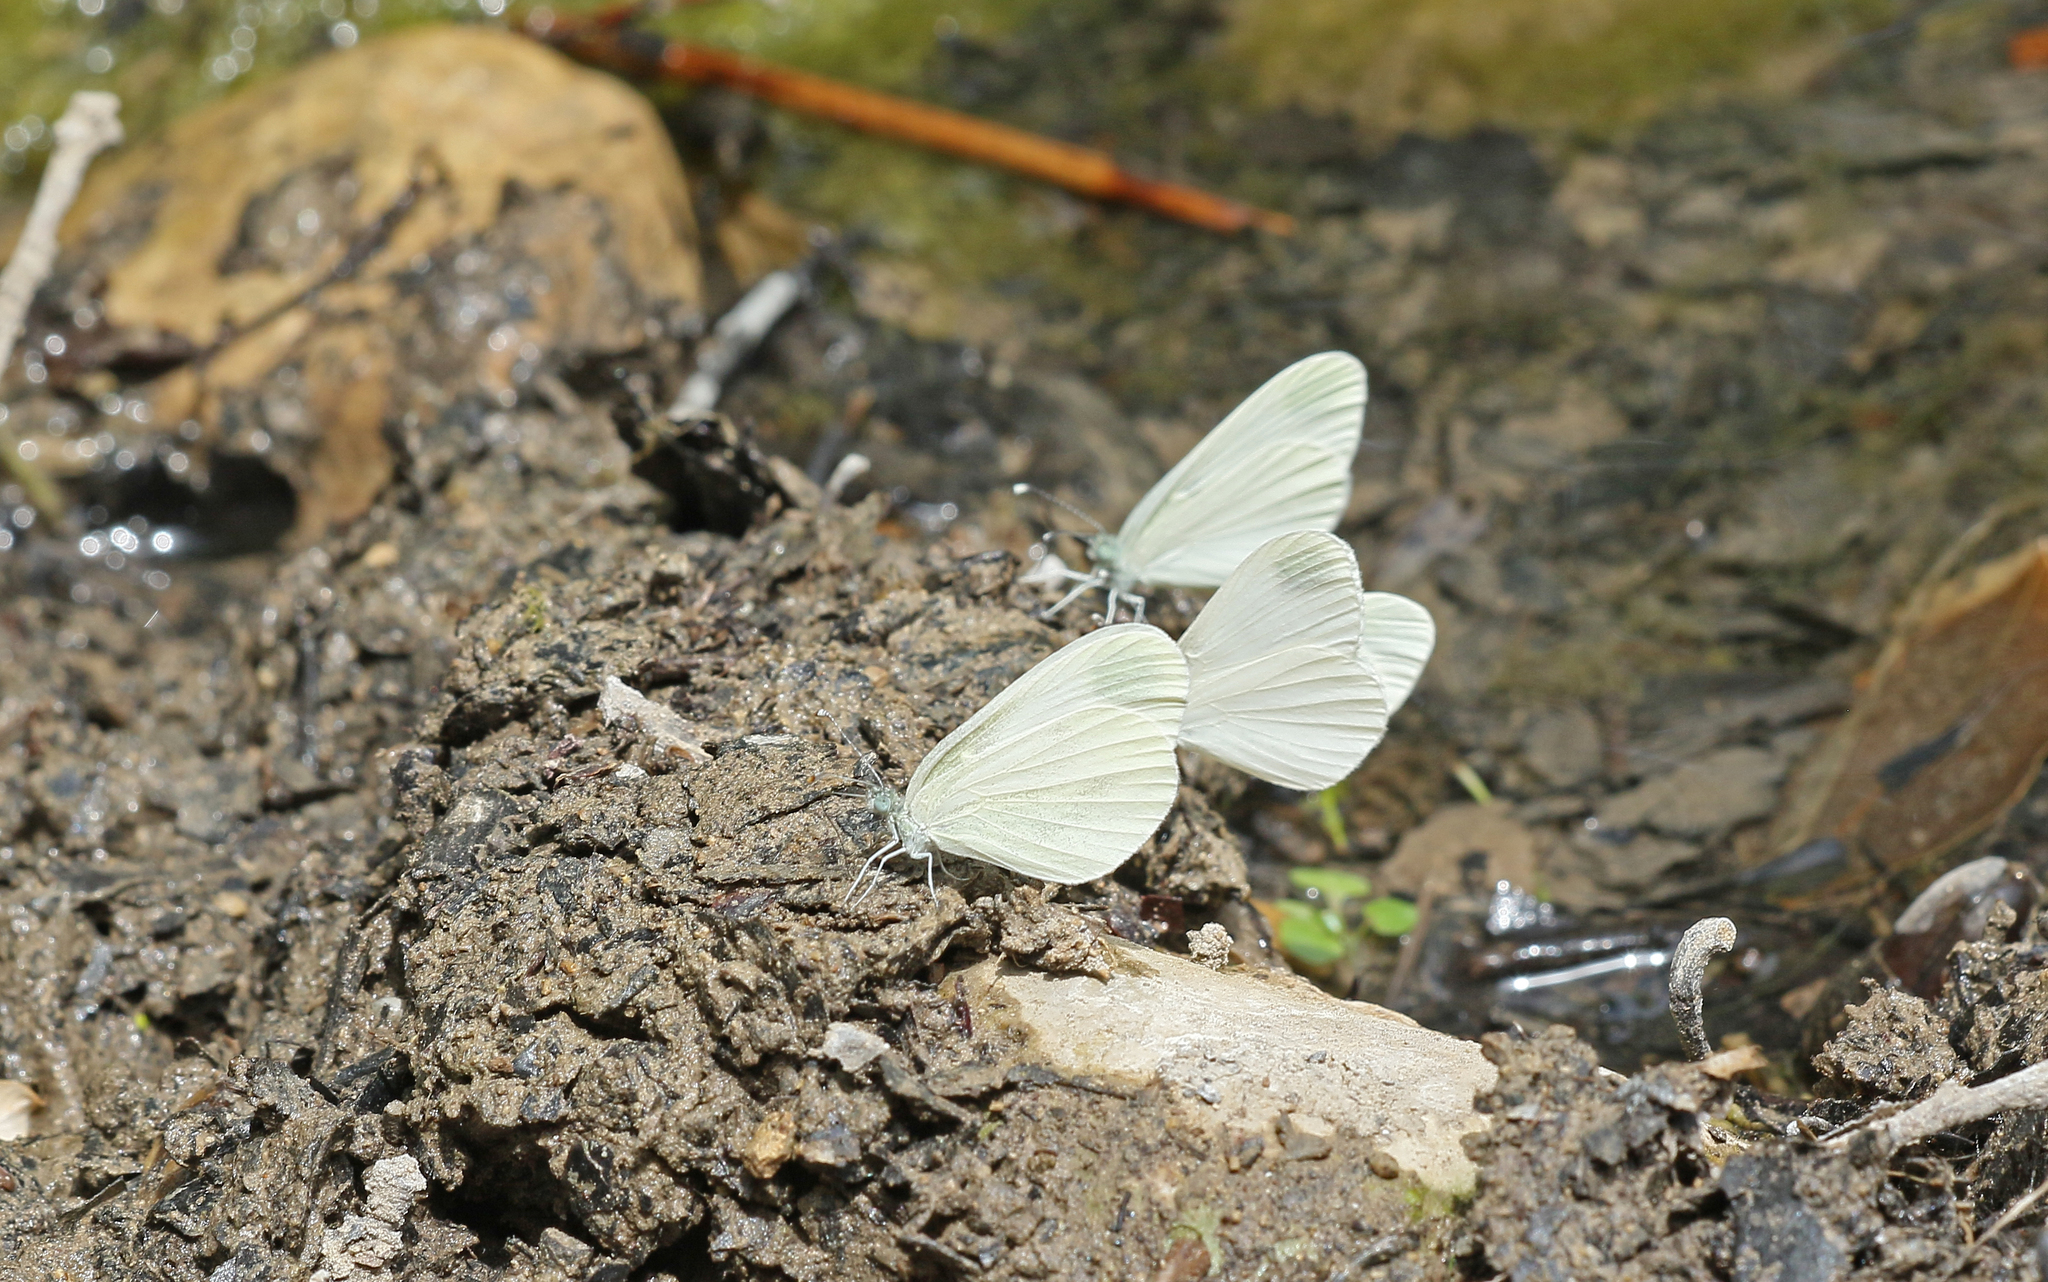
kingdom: Animalia
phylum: Arthropoda
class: Insecta
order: Lepidoptera
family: Pieridae
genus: Leptidea
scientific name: Leptidea sinapis
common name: Wood white
